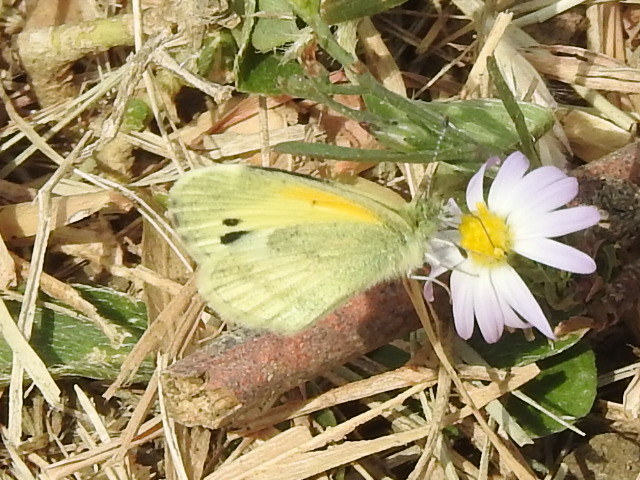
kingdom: Animalia
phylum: Arthropoda
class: Insecta
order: Lepidoptera
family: Pieridae
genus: Nathalis
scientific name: Nathalis iole
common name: Dainty sulphur
